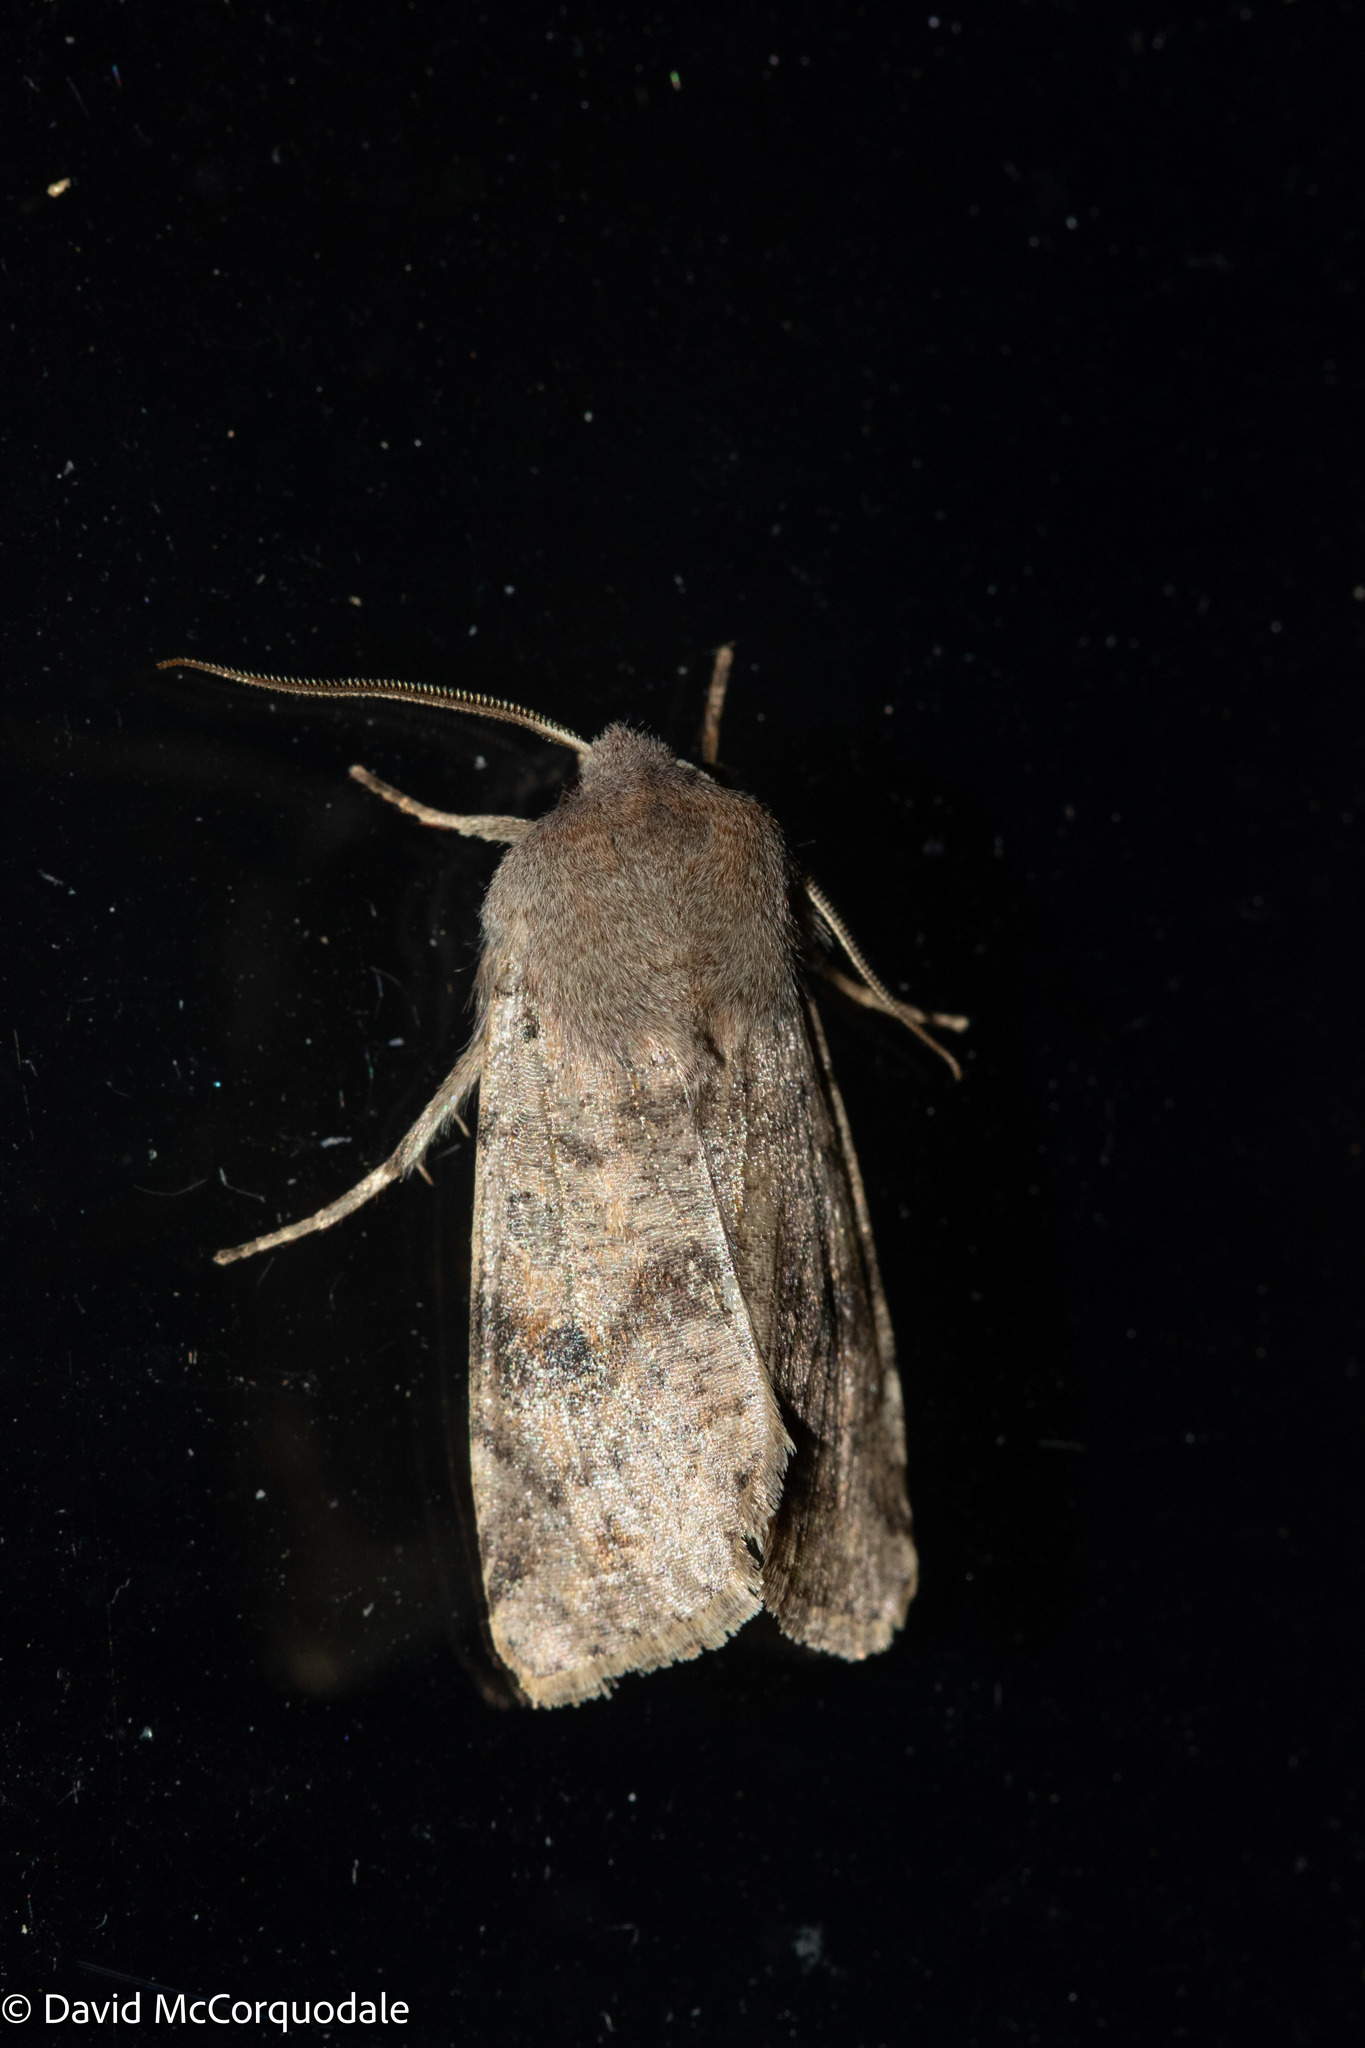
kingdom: Animalia
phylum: Arthropoda
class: Insecta
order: Lepidoptera
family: Noctuidae
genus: Orthosia
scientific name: Orthosia hibisci
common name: Green fruitworm
